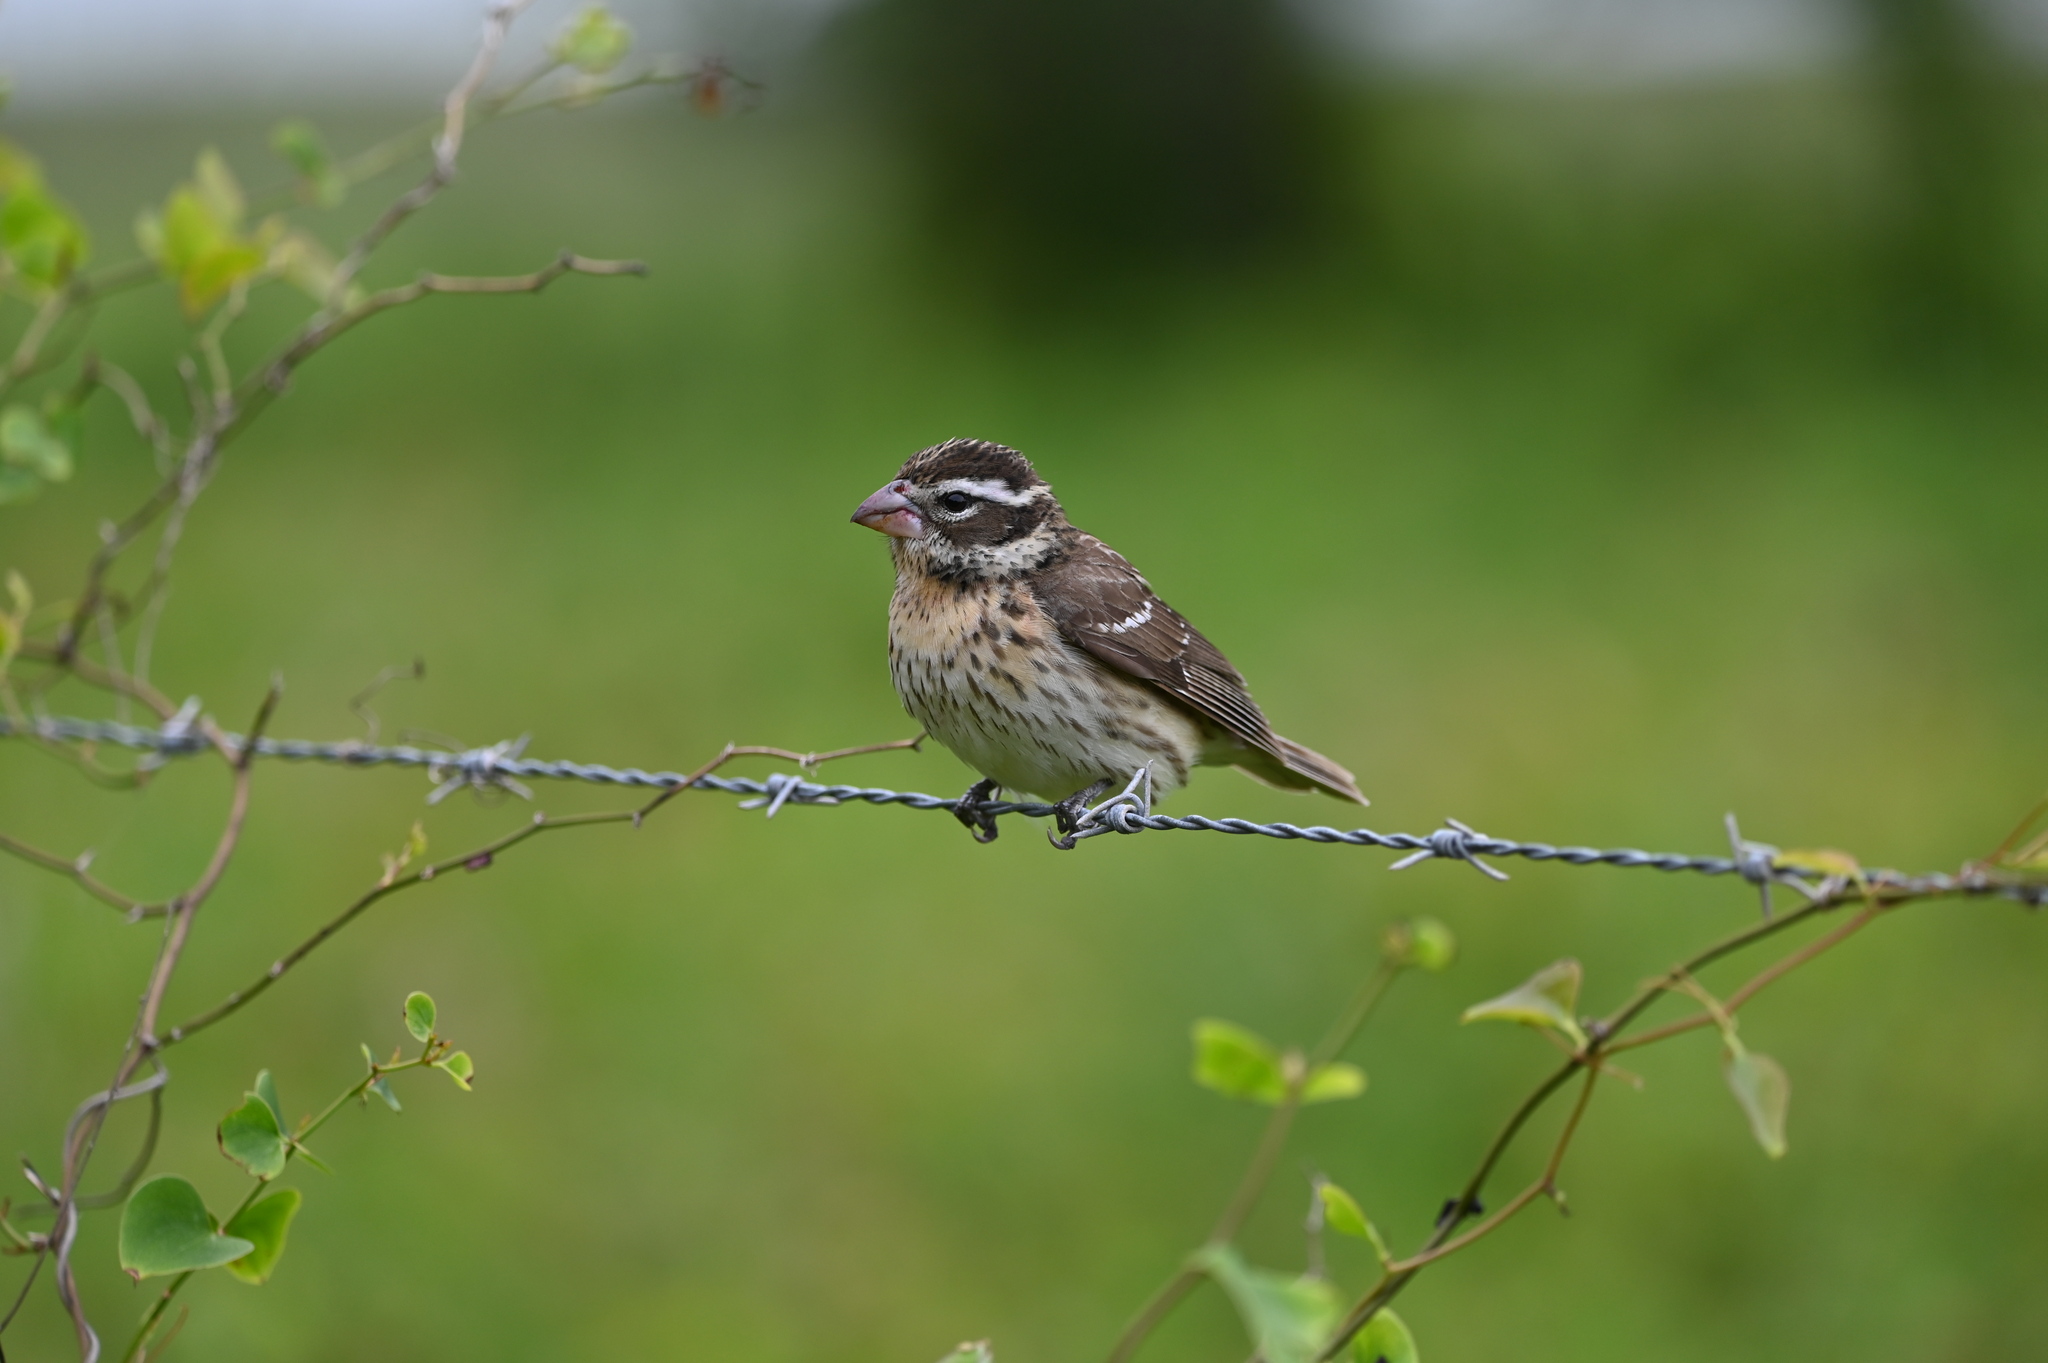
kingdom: Animalia
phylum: Chordata
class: Aves
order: Passeriformes
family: Cardinalidae
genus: Pheucticus
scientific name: Pheucticus ludovicianus
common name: Rose-breasted grosbeak
